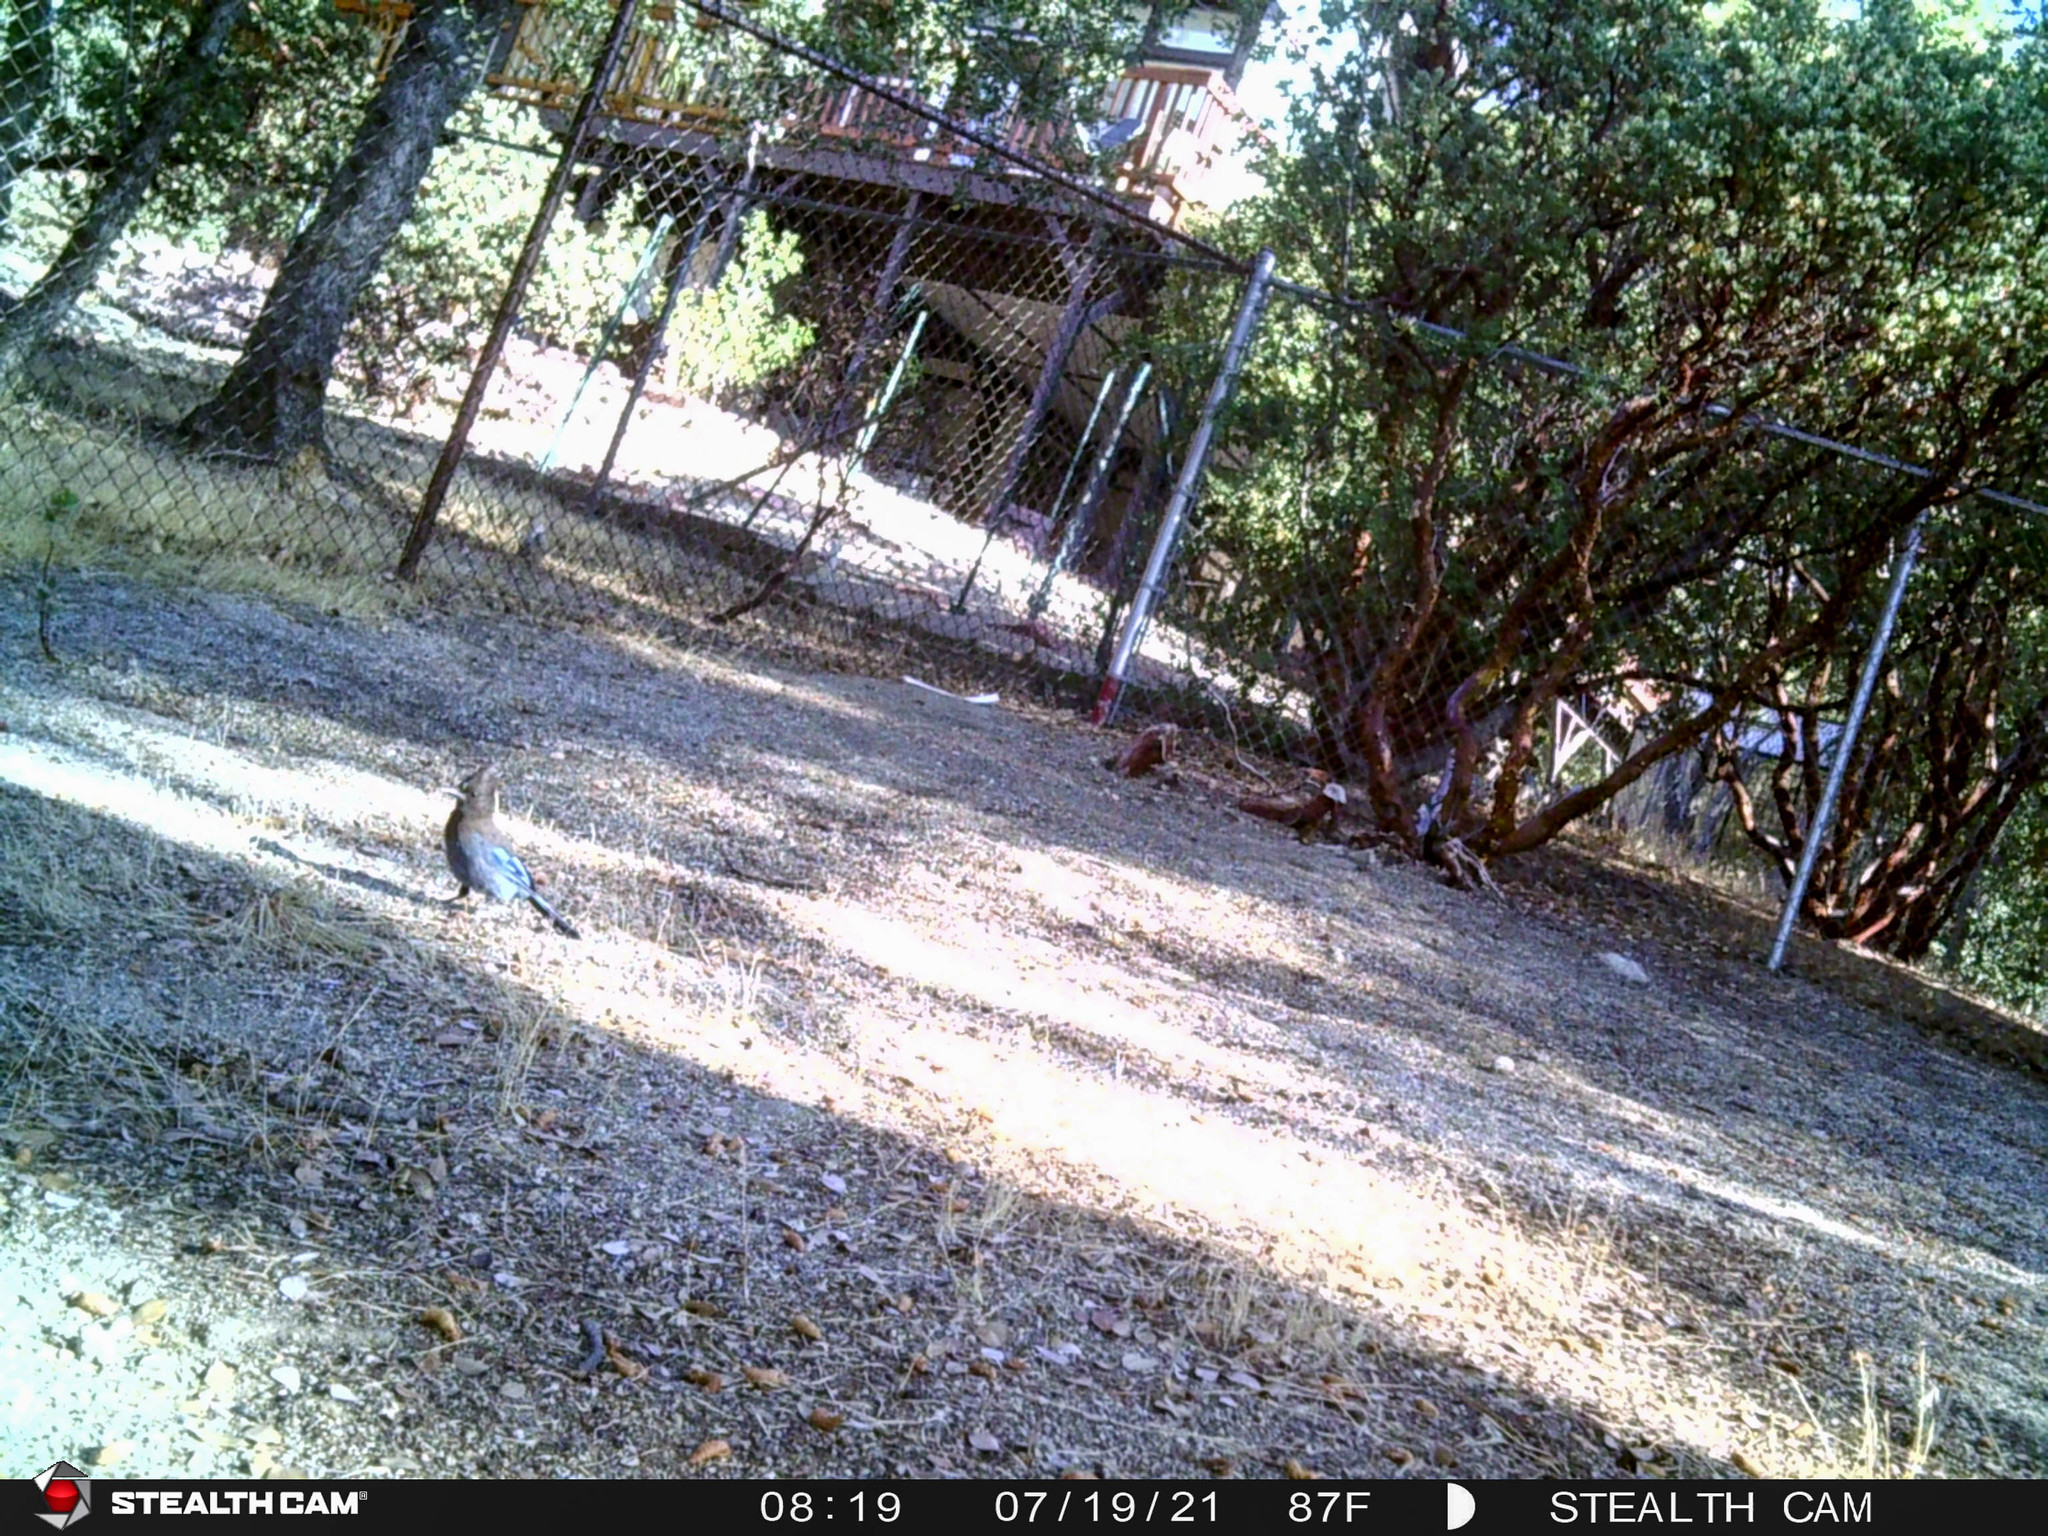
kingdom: Animalia
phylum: Chordata
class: Aves
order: Passeriformes
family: Corvidae
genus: Cyanocitta
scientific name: Cyanocitta stelleri
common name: Steller's jay
